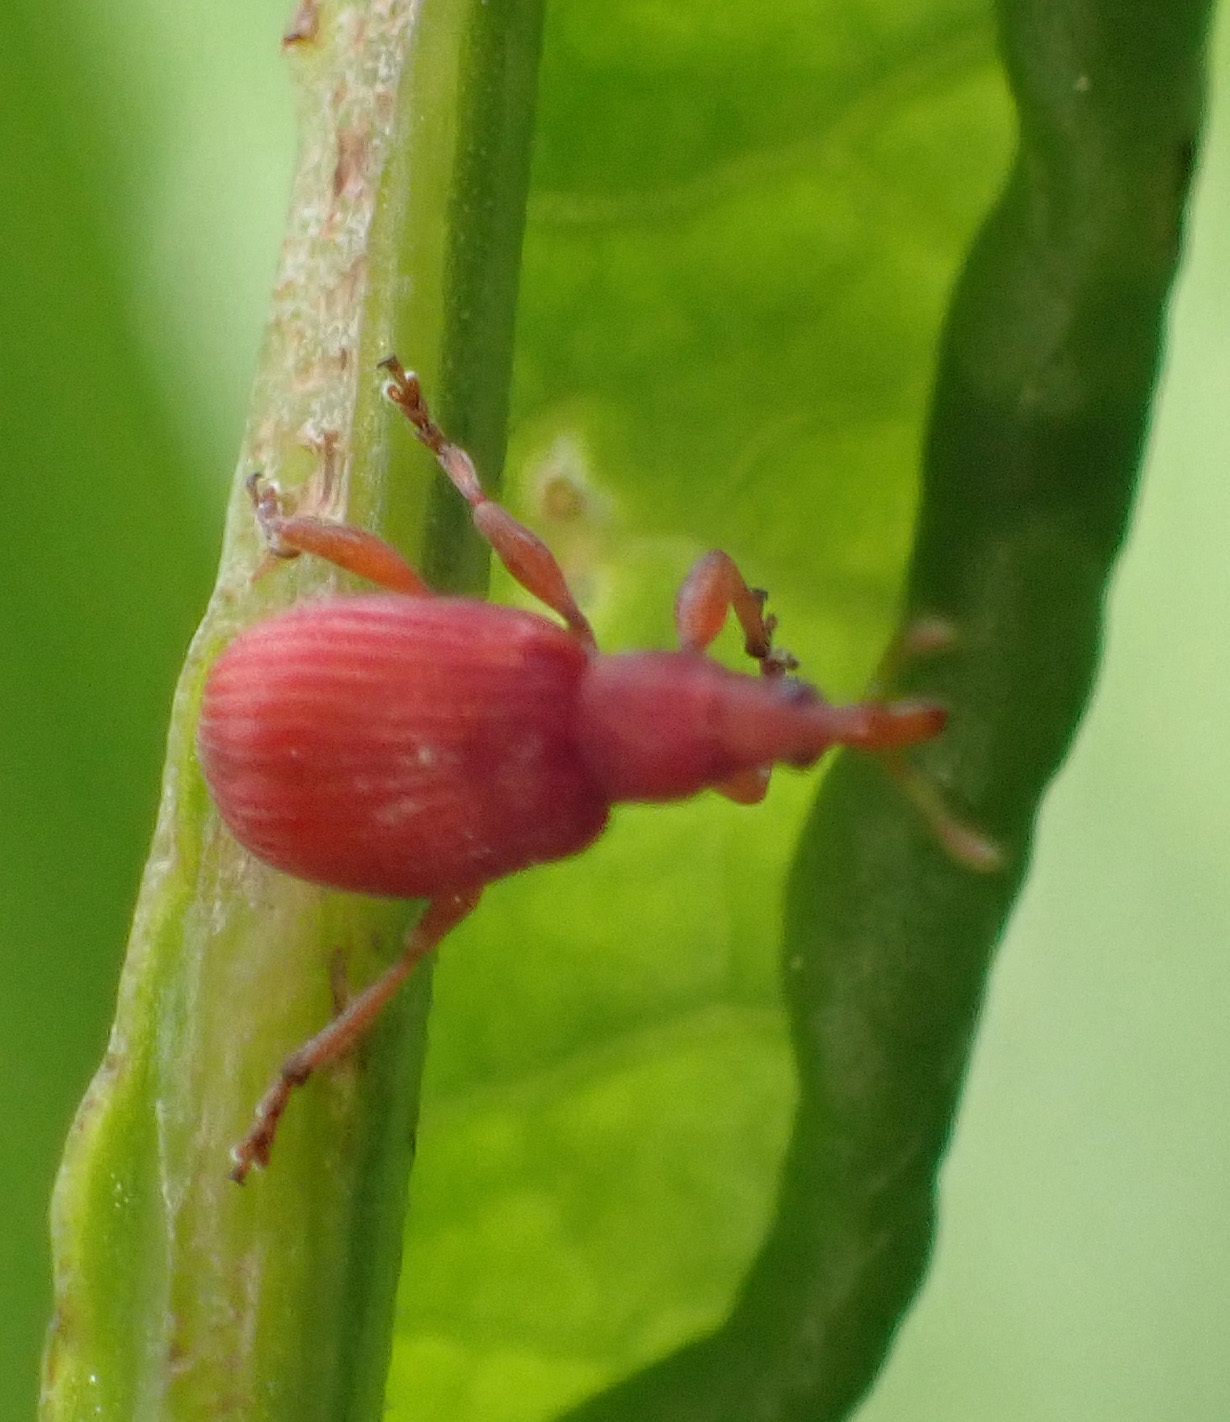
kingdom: Animalia
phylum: Arthropoda
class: Insecta
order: Coleoptera
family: Apionidae
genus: Apion
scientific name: Apion frumentarium
